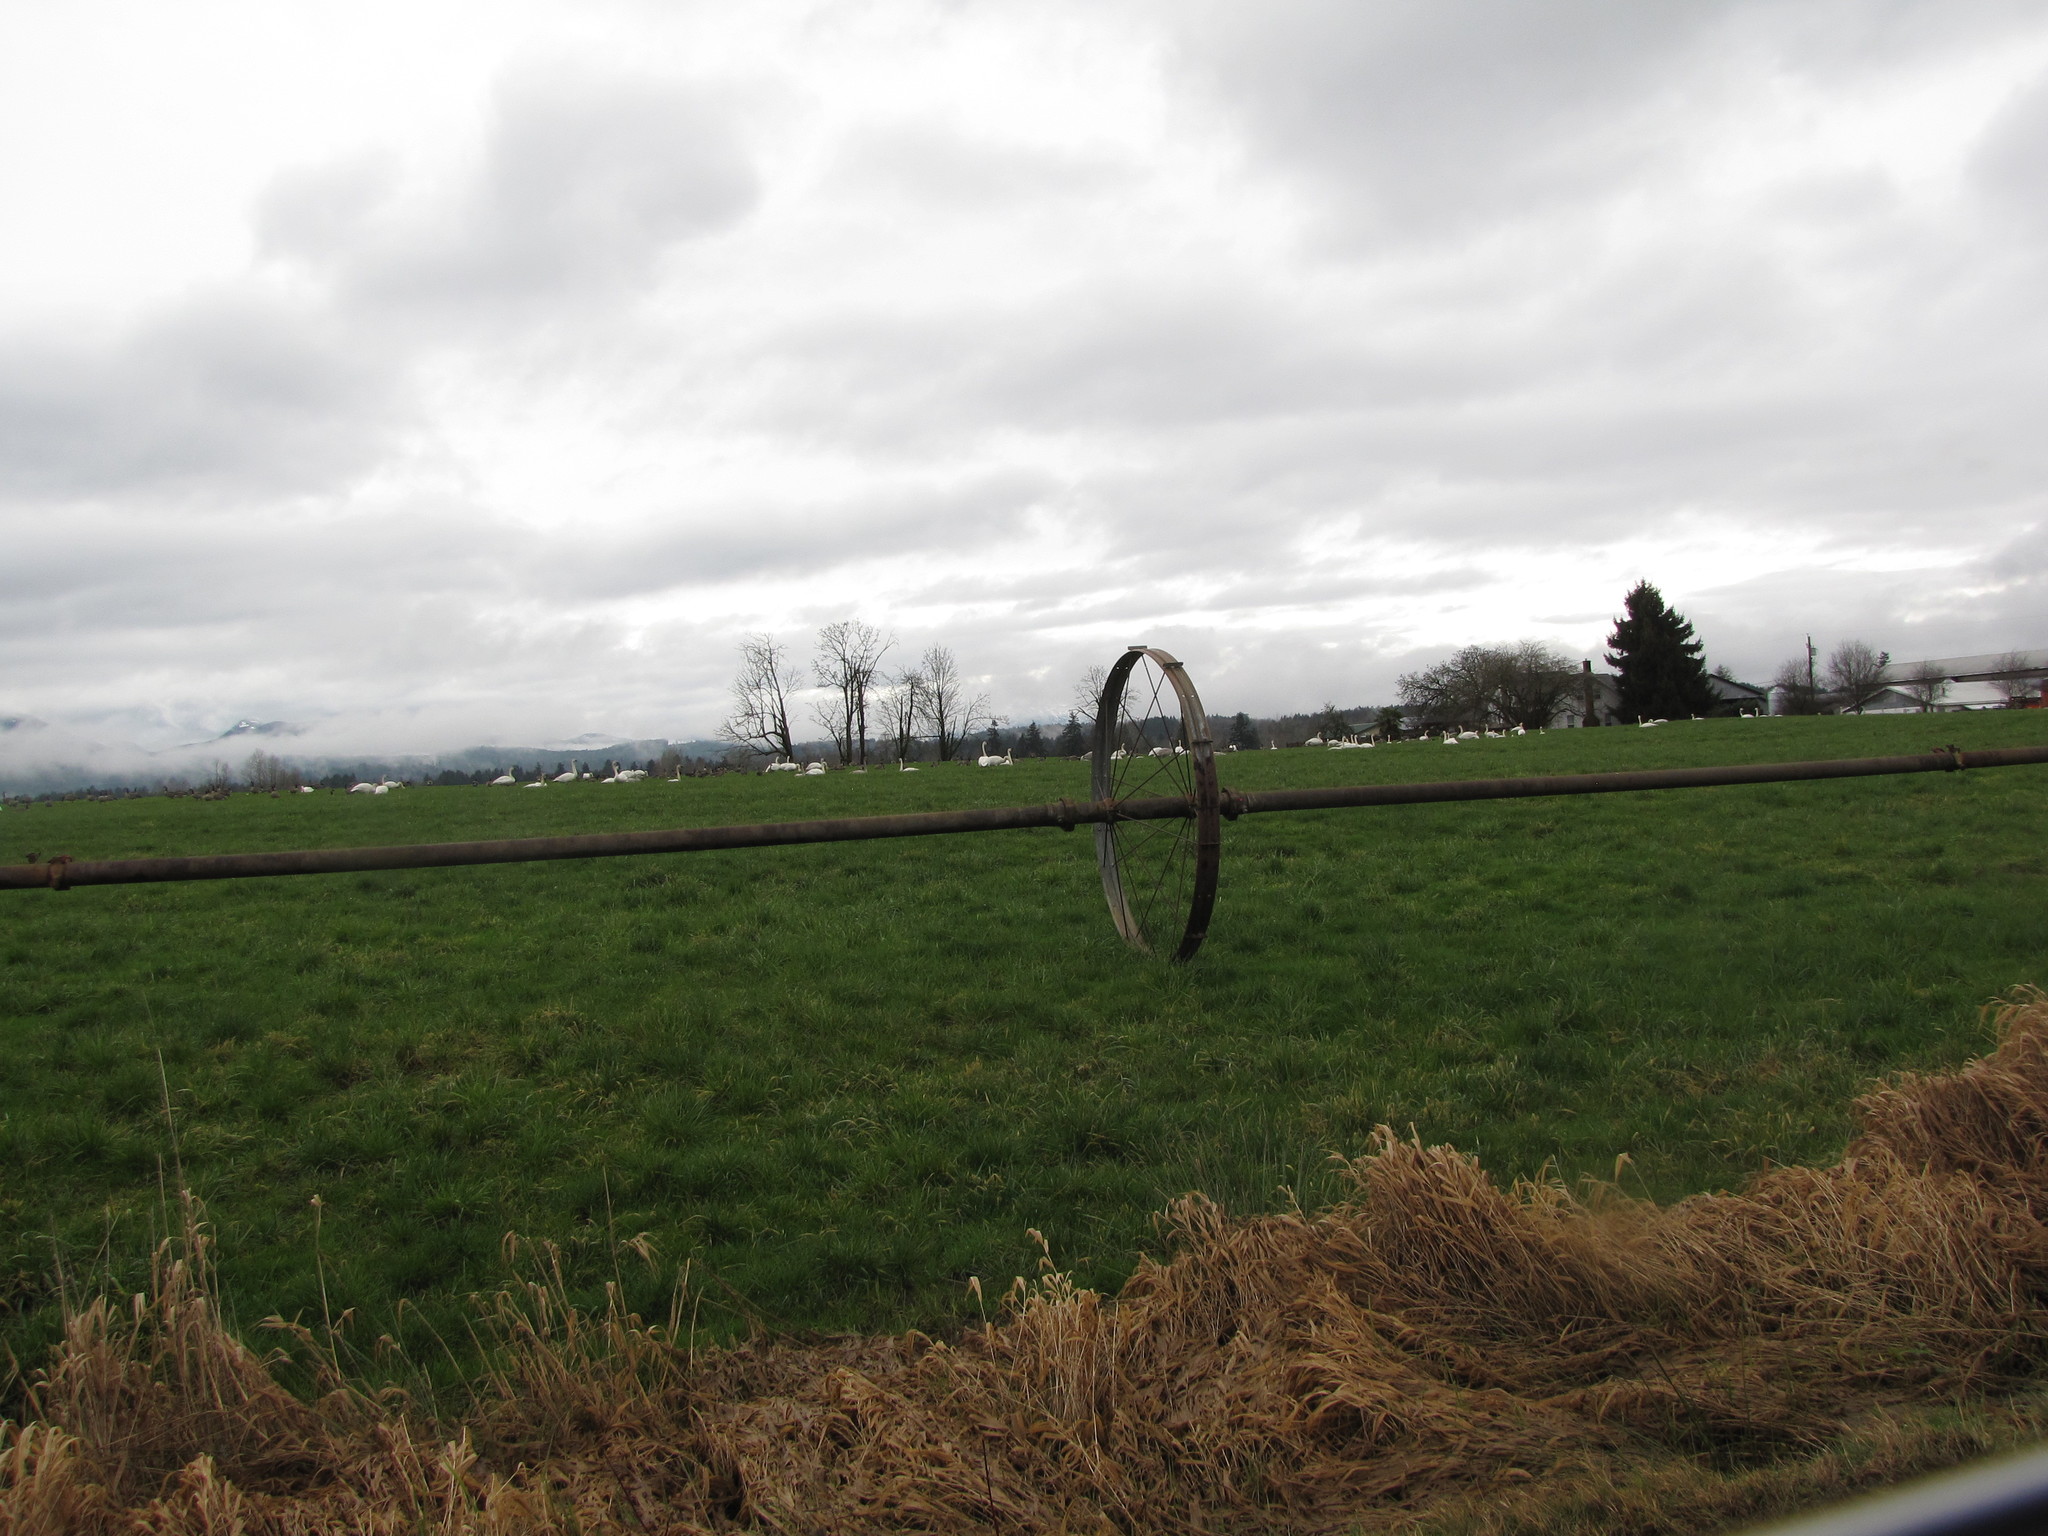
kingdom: Animalia
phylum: Chordata
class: Aves
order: Anseriformes
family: Anatidae
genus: Cygnus
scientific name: Cygnus buccinator
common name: Trumpeter swan
